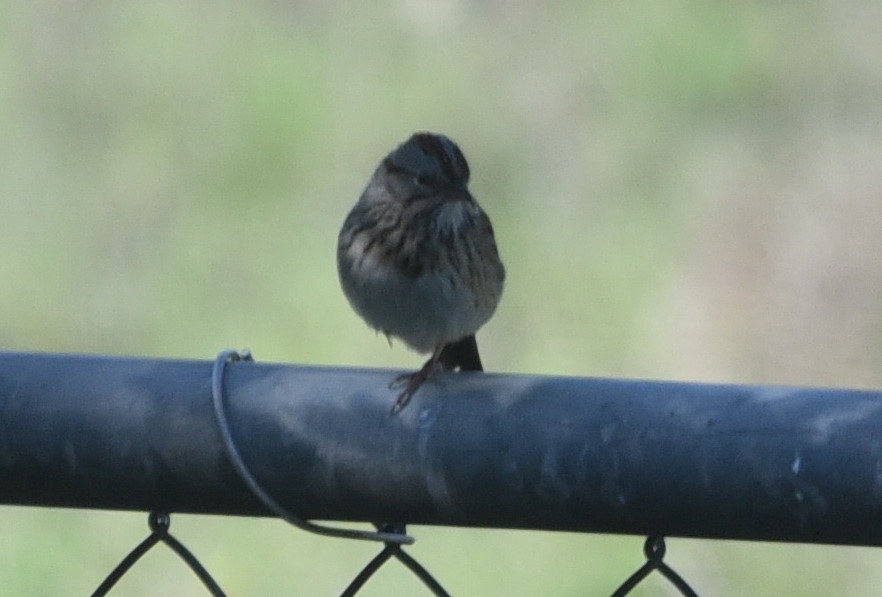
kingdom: Animalia
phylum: Chordata
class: Aves
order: Passeriformes
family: Passerellidae
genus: Melospiza
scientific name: Melospiza lincolnii
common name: Lincoln's sparrow
